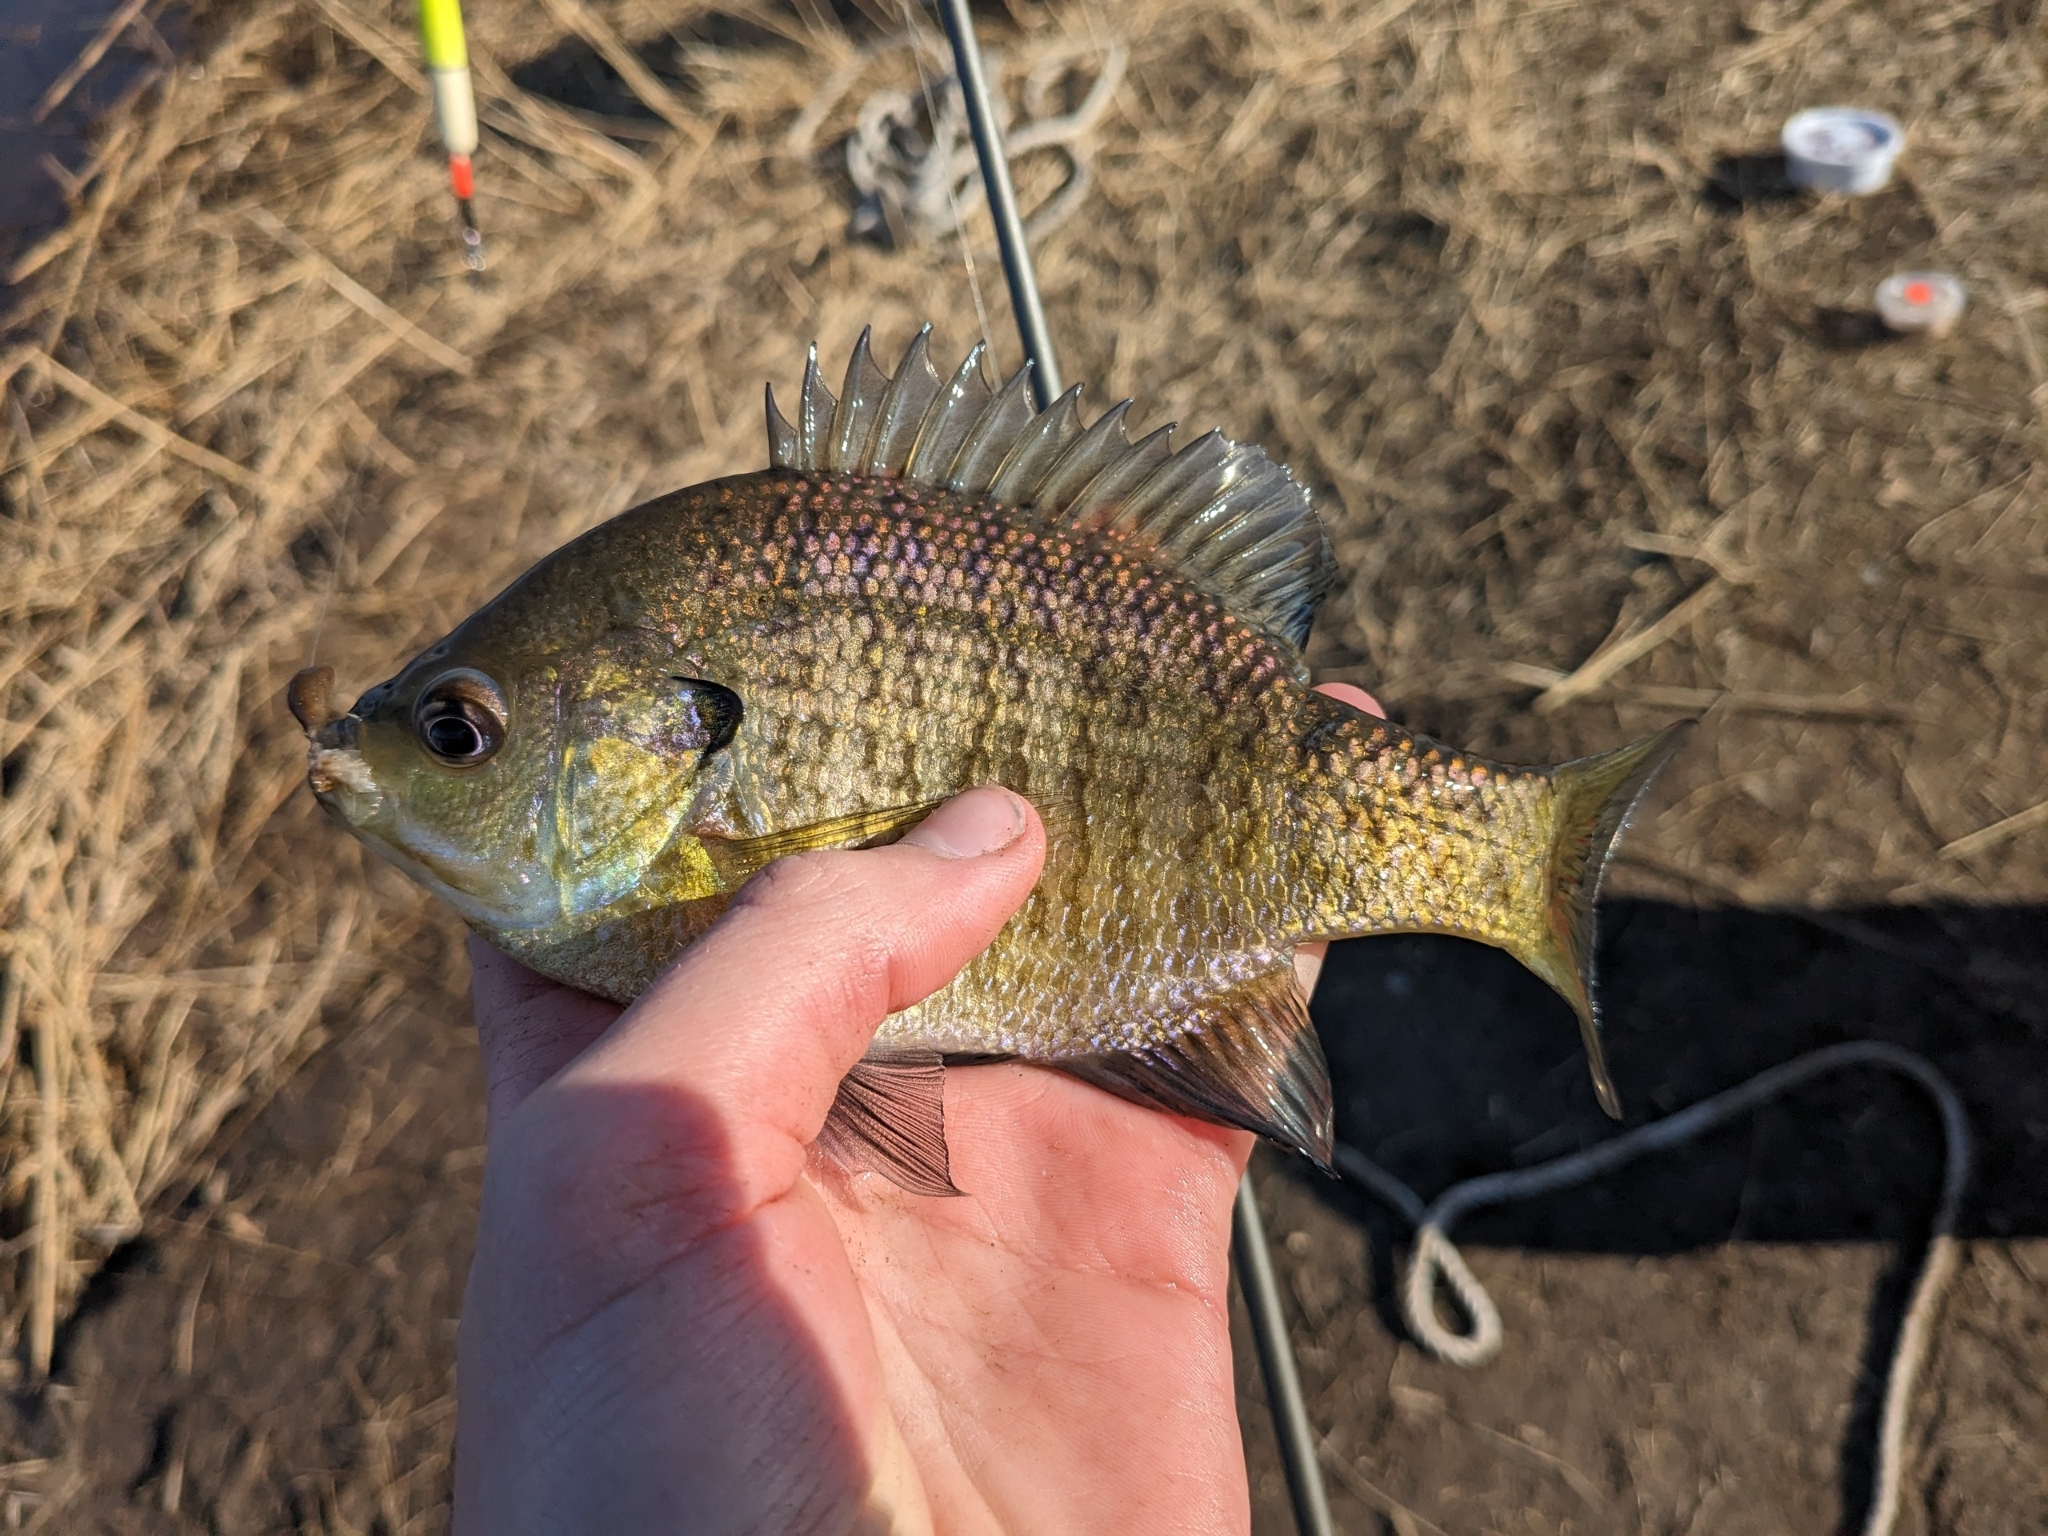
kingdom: Animalia
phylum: Chordata
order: Perciformes
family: Centrarchidae
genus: Lepomis
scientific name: Lepomis macrochirus
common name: Bluegill
